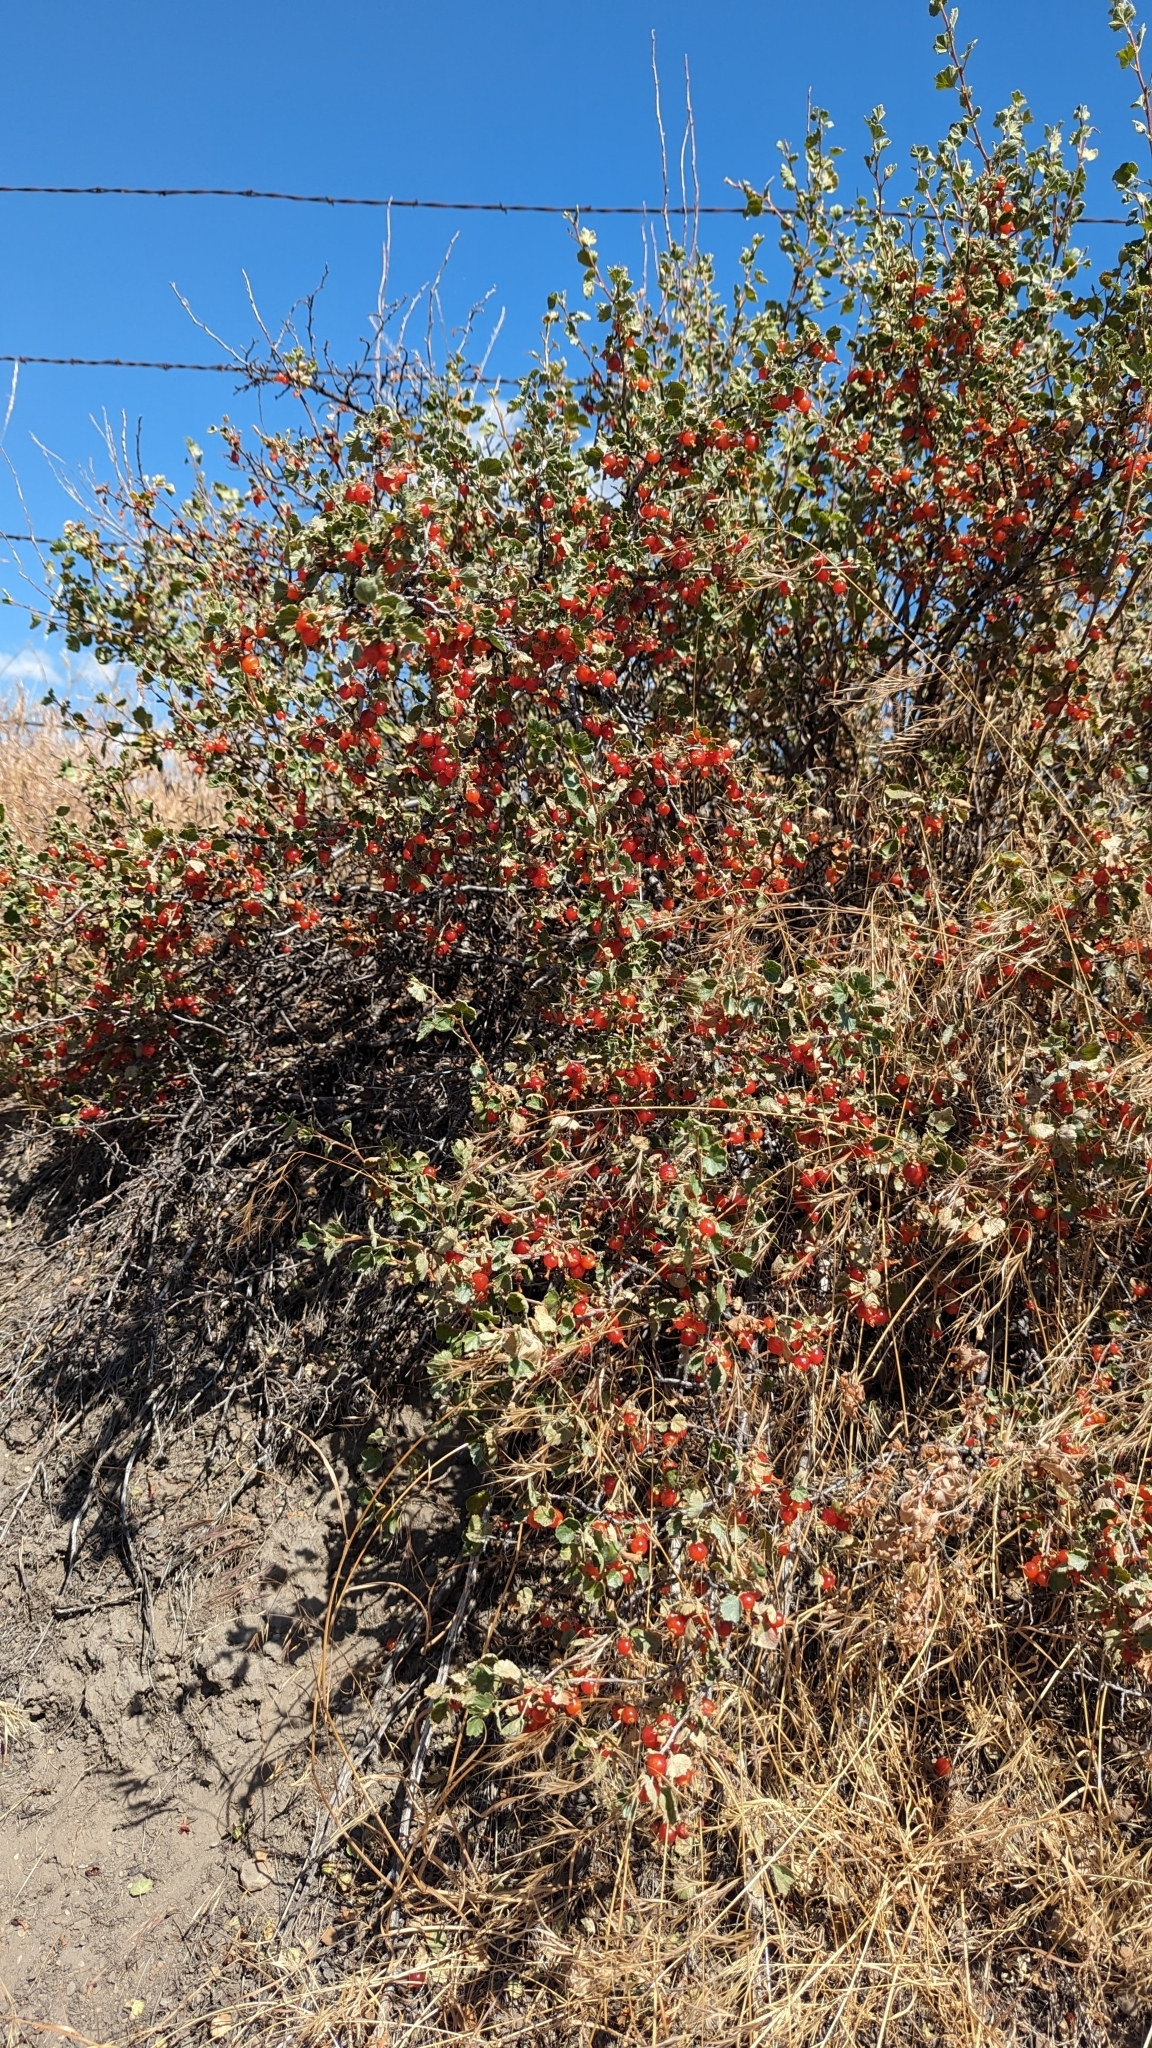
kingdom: Plantae
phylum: Tracheophyta
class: Magnoliopsida
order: Saxifragales
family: Grossulariaceae
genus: Ribes
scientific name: Ribes cereum
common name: Wax currant
